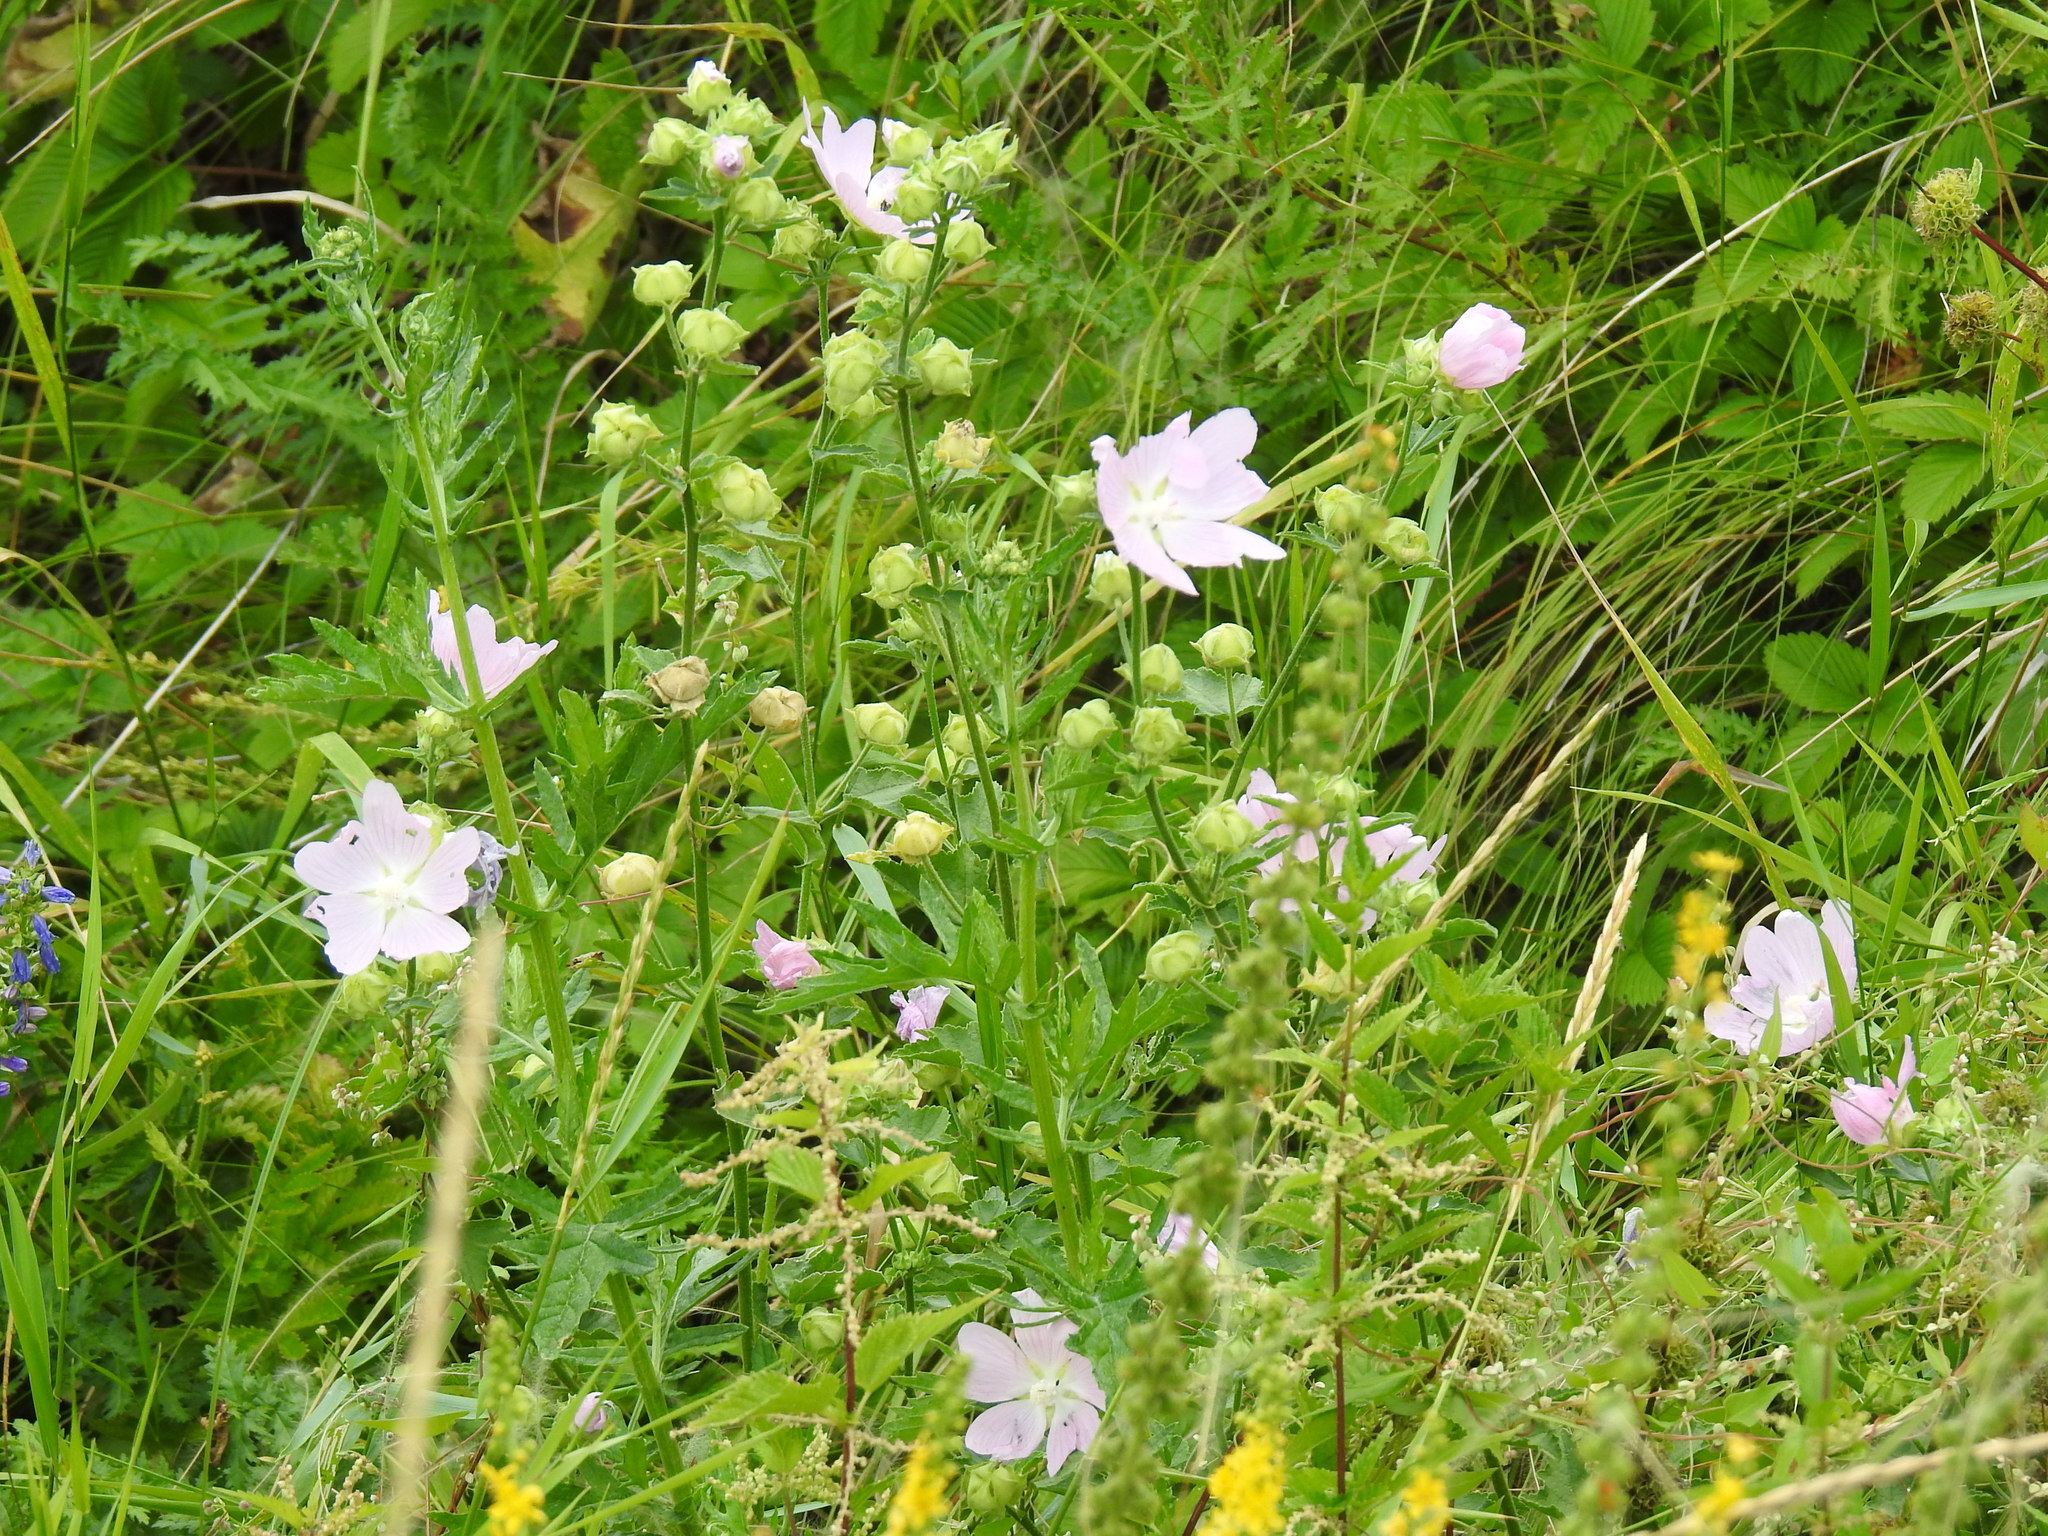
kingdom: Plantae
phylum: Tracheophyta
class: Magnoliopsida
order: Malvales
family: Malvaceae
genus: Malva
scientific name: Malva thuringiaca
